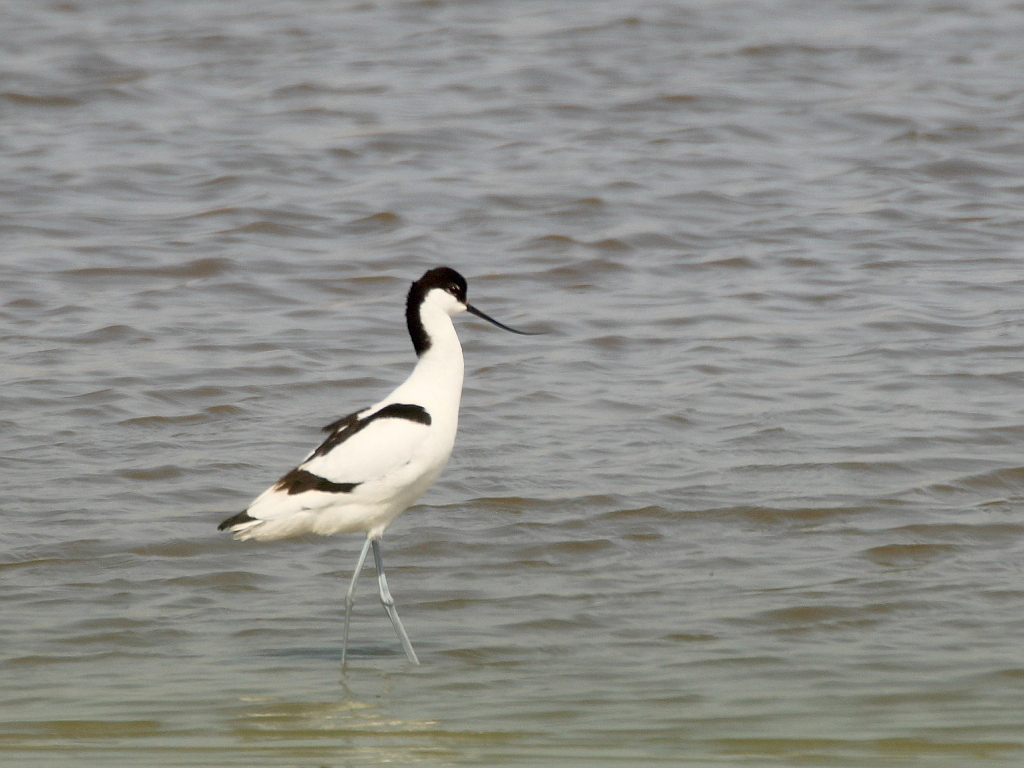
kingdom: Animalia
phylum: Chordata
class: Aves
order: Charadriiformes
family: Recurvirostridae
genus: Recurvirostra
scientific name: Recurvirostra avosetta
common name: Pied avocet
